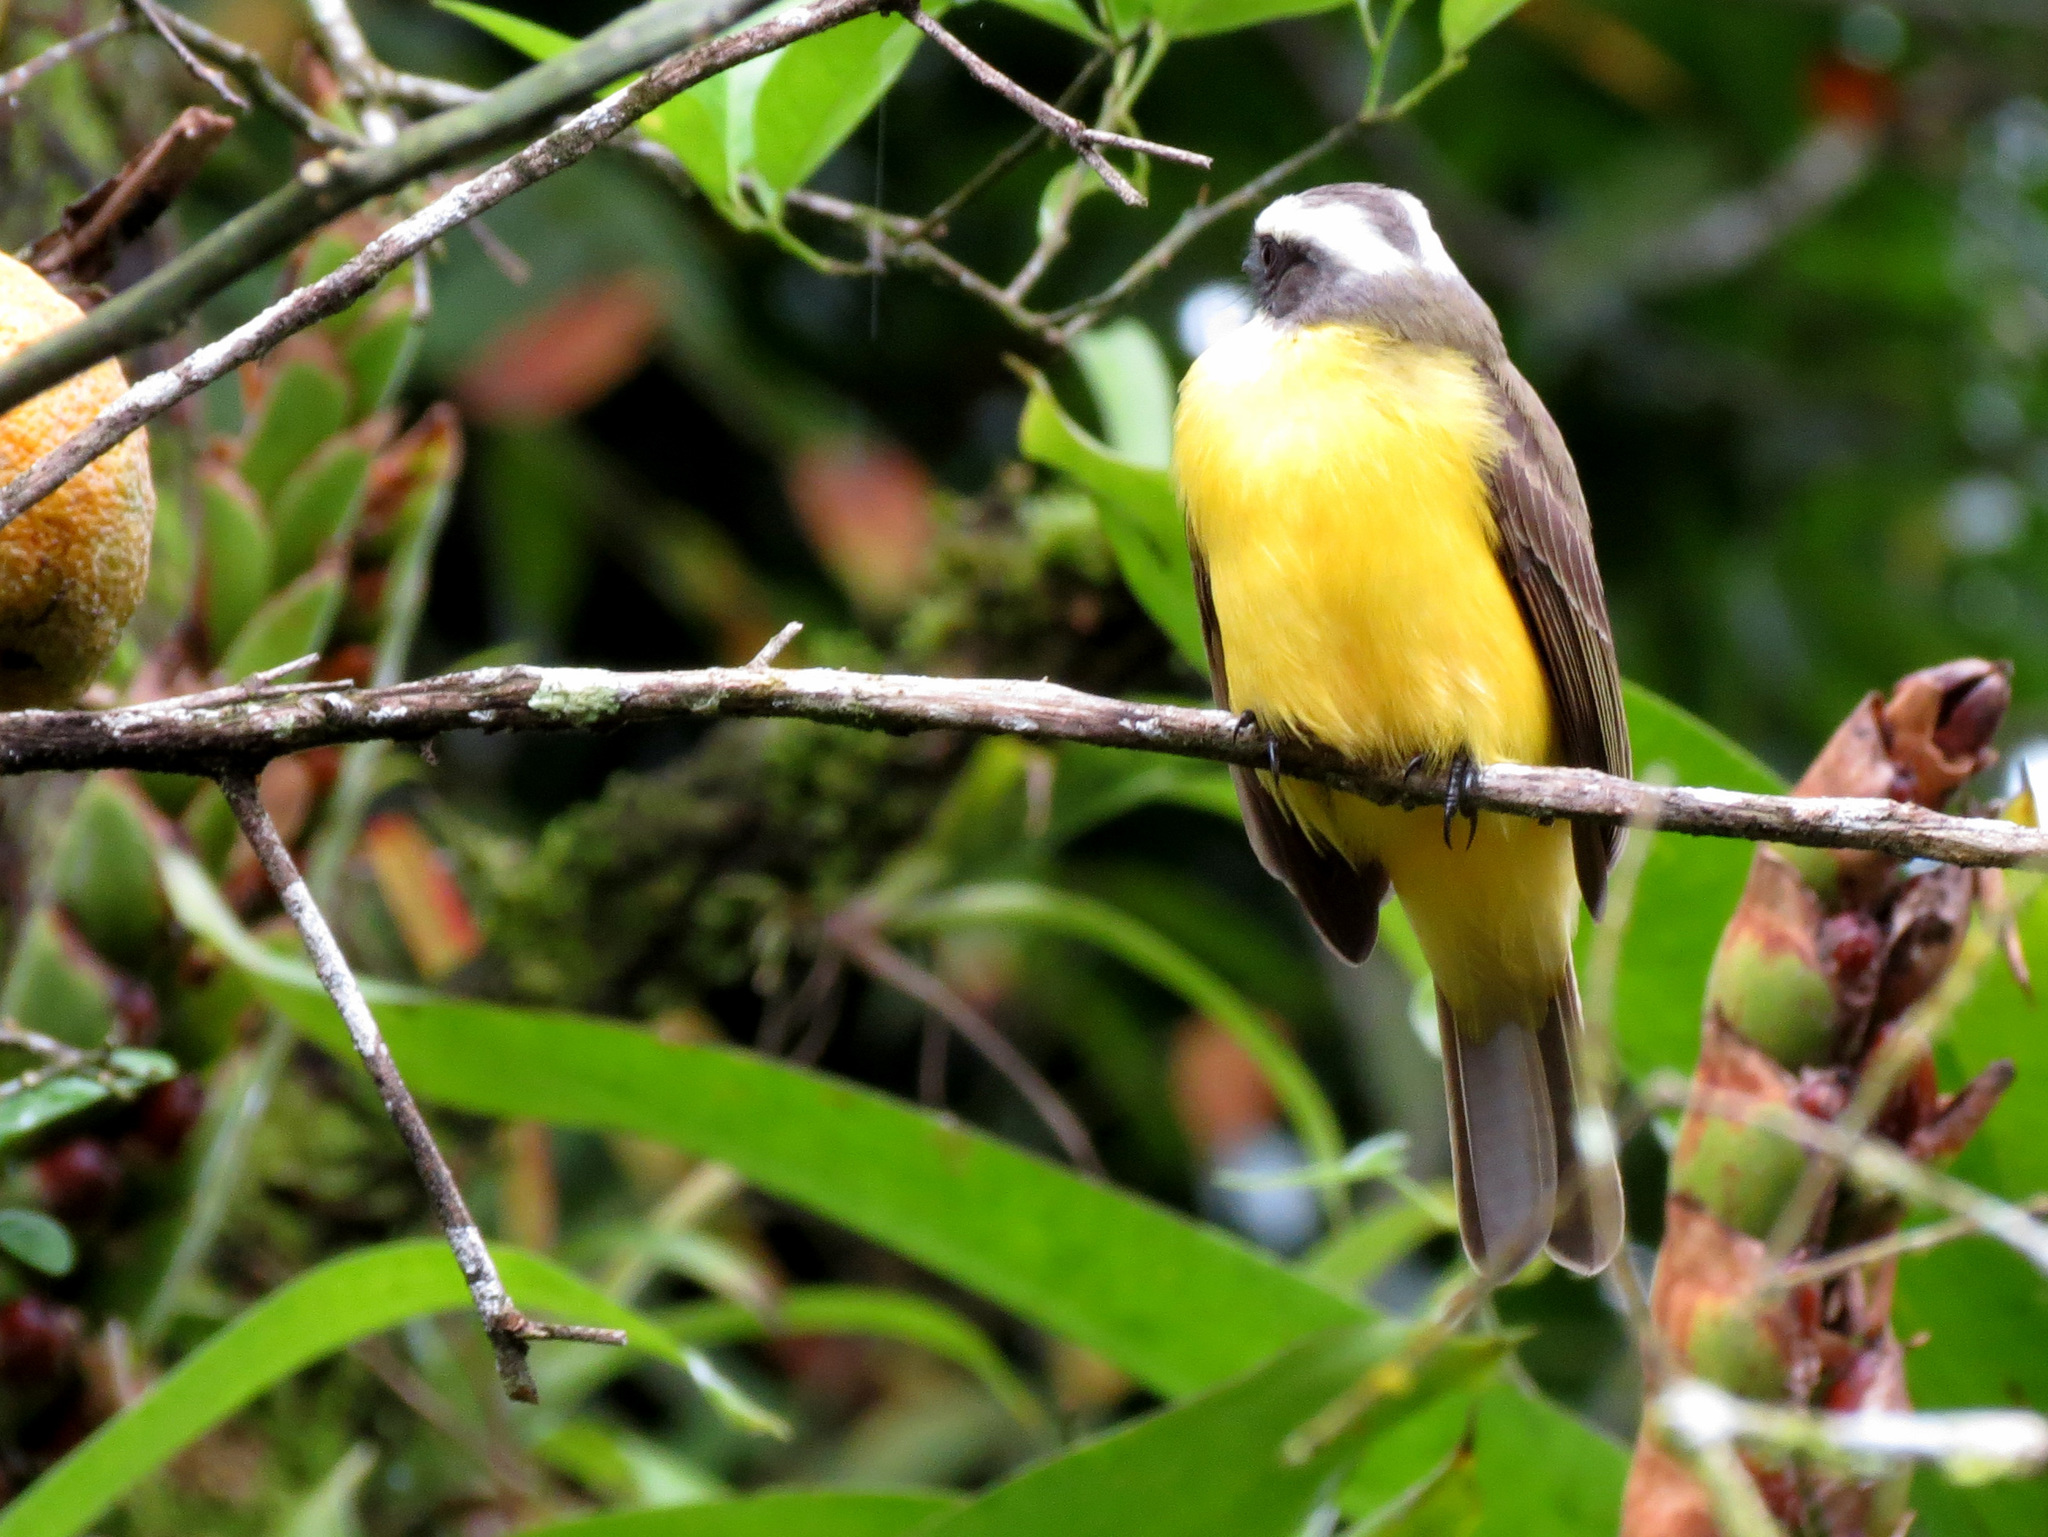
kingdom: Animalia
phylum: Chordata
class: Aves
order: Passeriformes
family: Tyrannidae
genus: Myiozetetes
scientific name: Myiozetetes similis
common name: Social flycatcher
